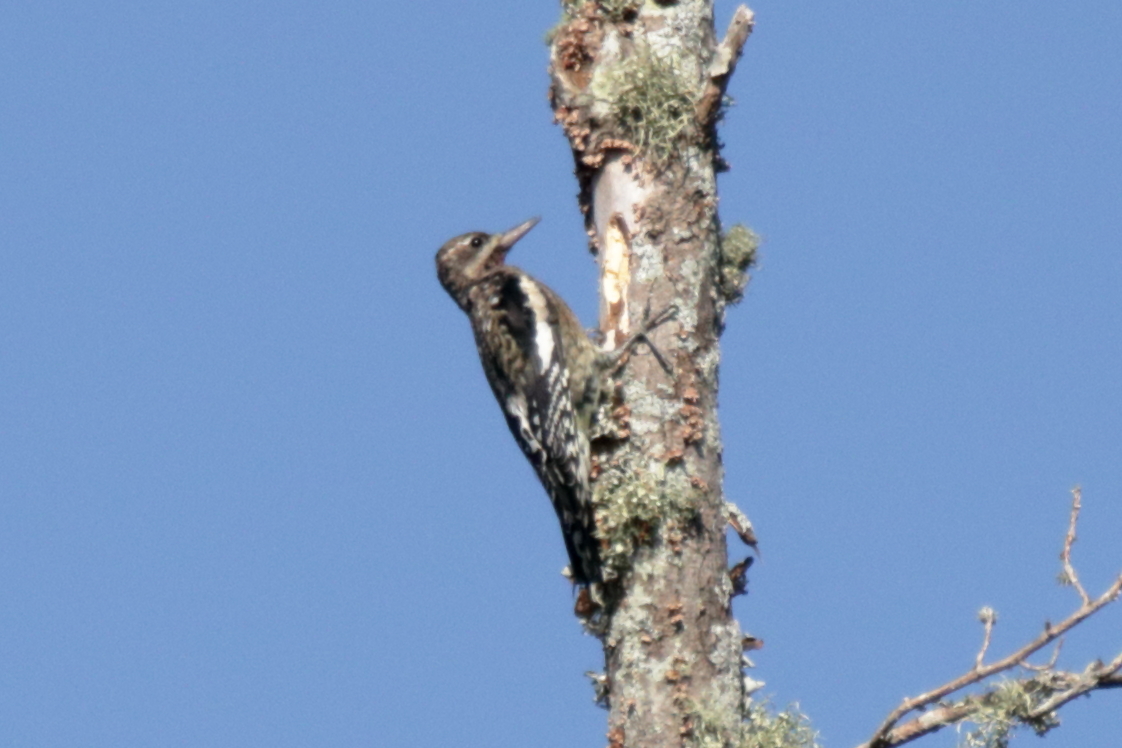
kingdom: Animalia
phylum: Chordata
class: Aves
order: Piciformes
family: Picidae
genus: Sphyrapicus
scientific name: Sphyrapicus varius
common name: Yellow-bellied sapsucker
